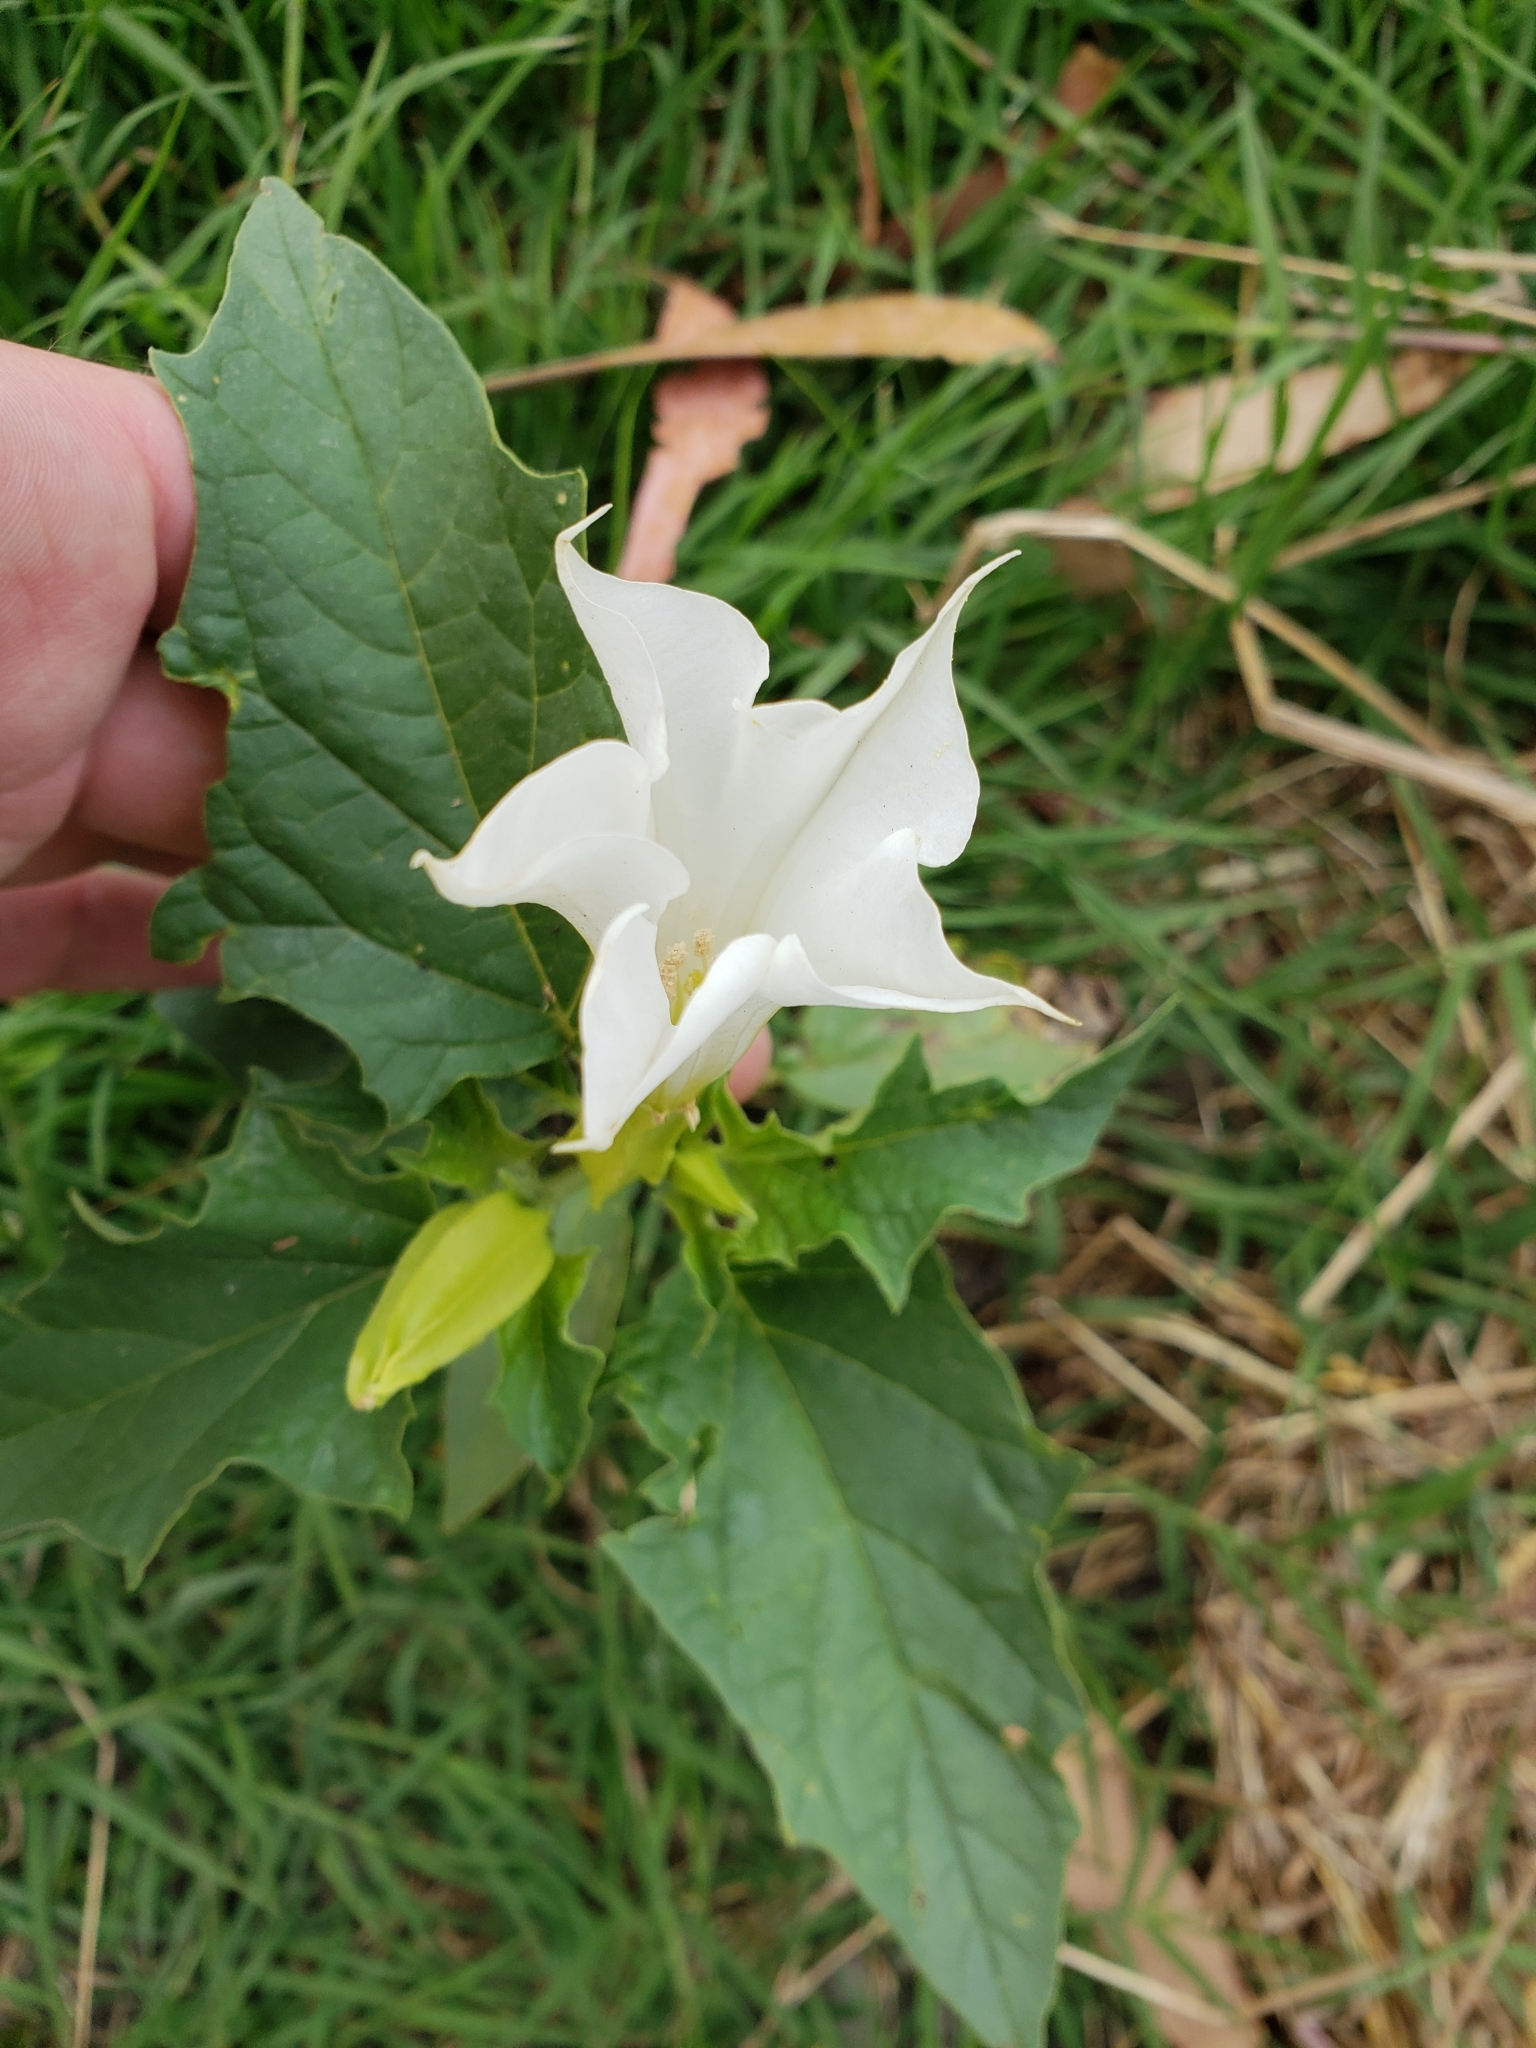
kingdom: Plantae
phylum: Tracheophyta
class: Magnoliopsida
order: Solanales
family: Solanaceae
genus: Datura
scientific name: Datura stramonium
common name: Thorn-apple
